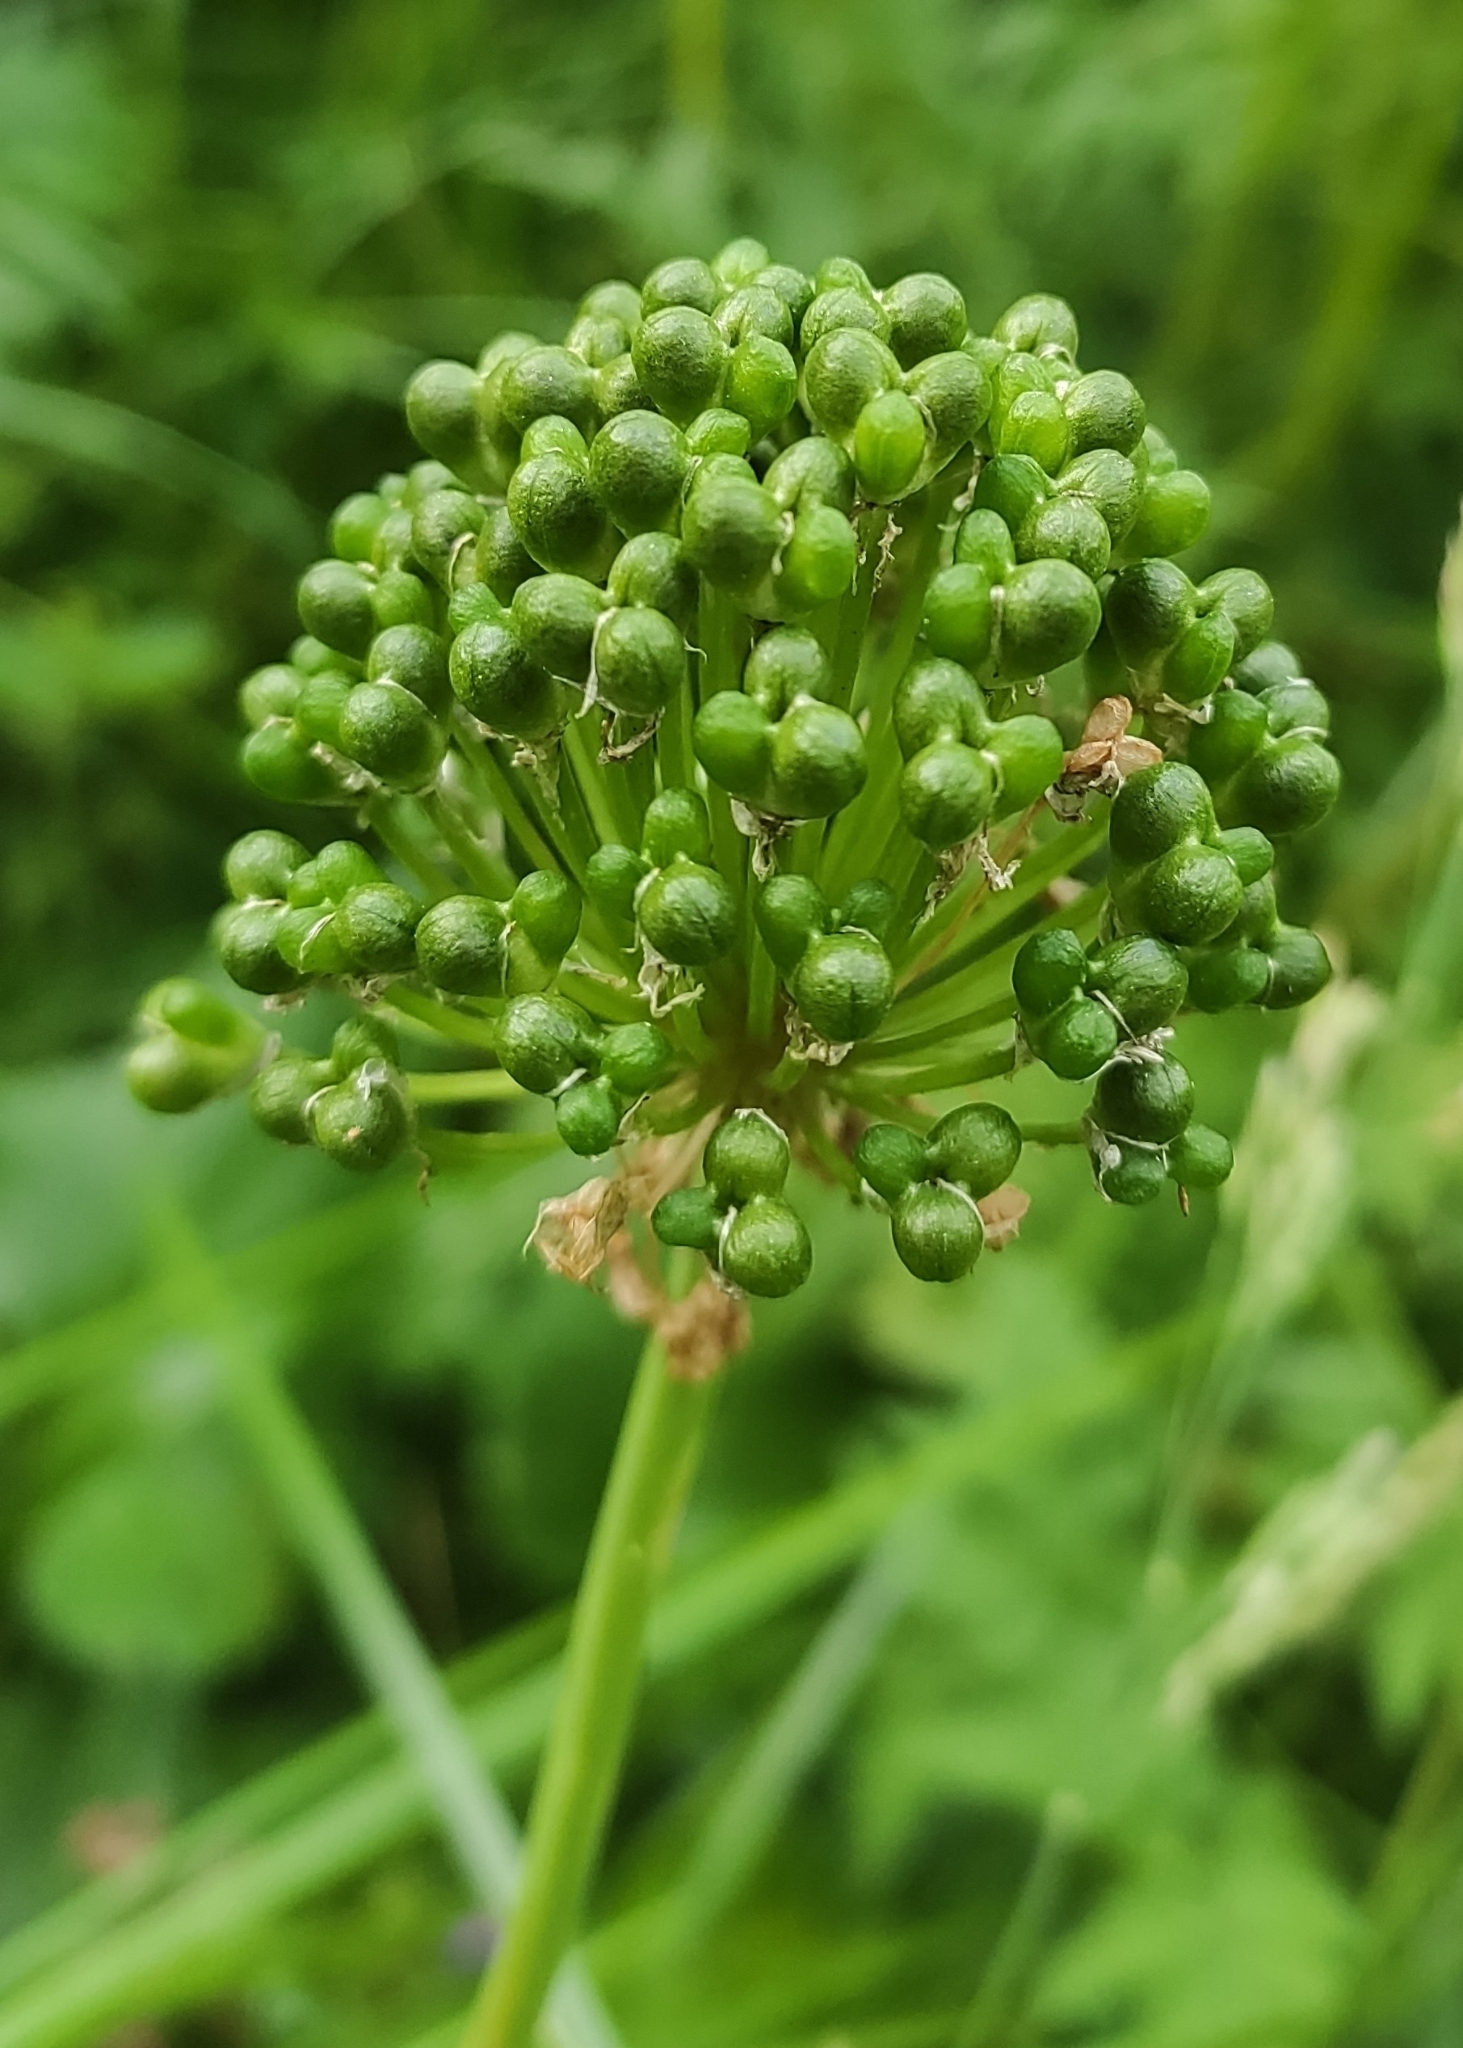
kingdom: Plantae
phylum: Tracheophyta
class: Liliopsida
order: Asparagales
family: Amaryllidaceae
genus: Allium
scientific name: Allium victorialis
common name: Alpine leek
